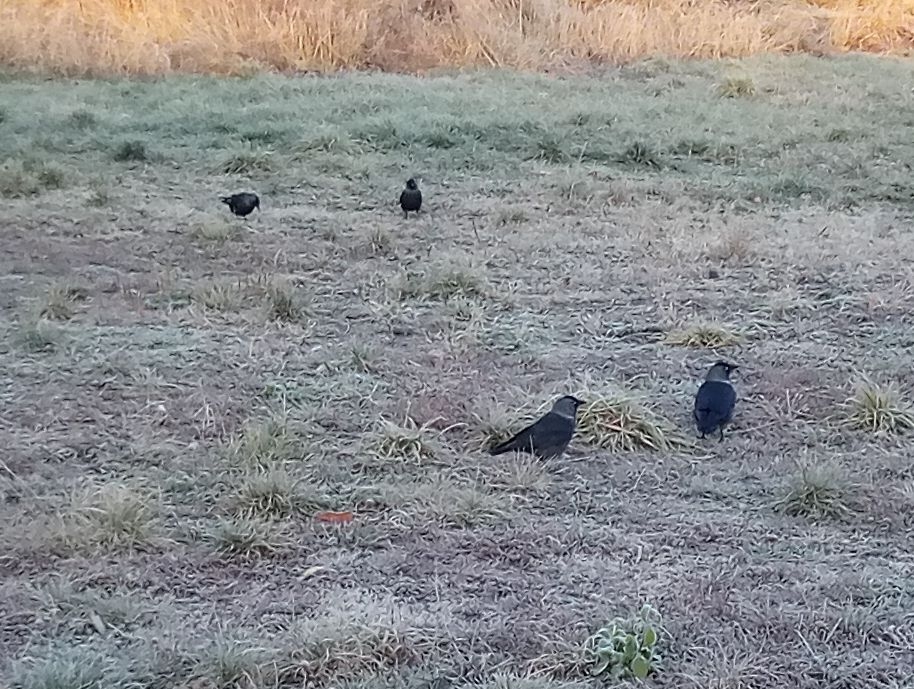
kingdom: Animalia
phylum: Chordata
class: Aves
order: Passeriformes
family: Corvidae
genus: Coloeus
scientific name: Coloeus monedula
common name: Western jackdaw
